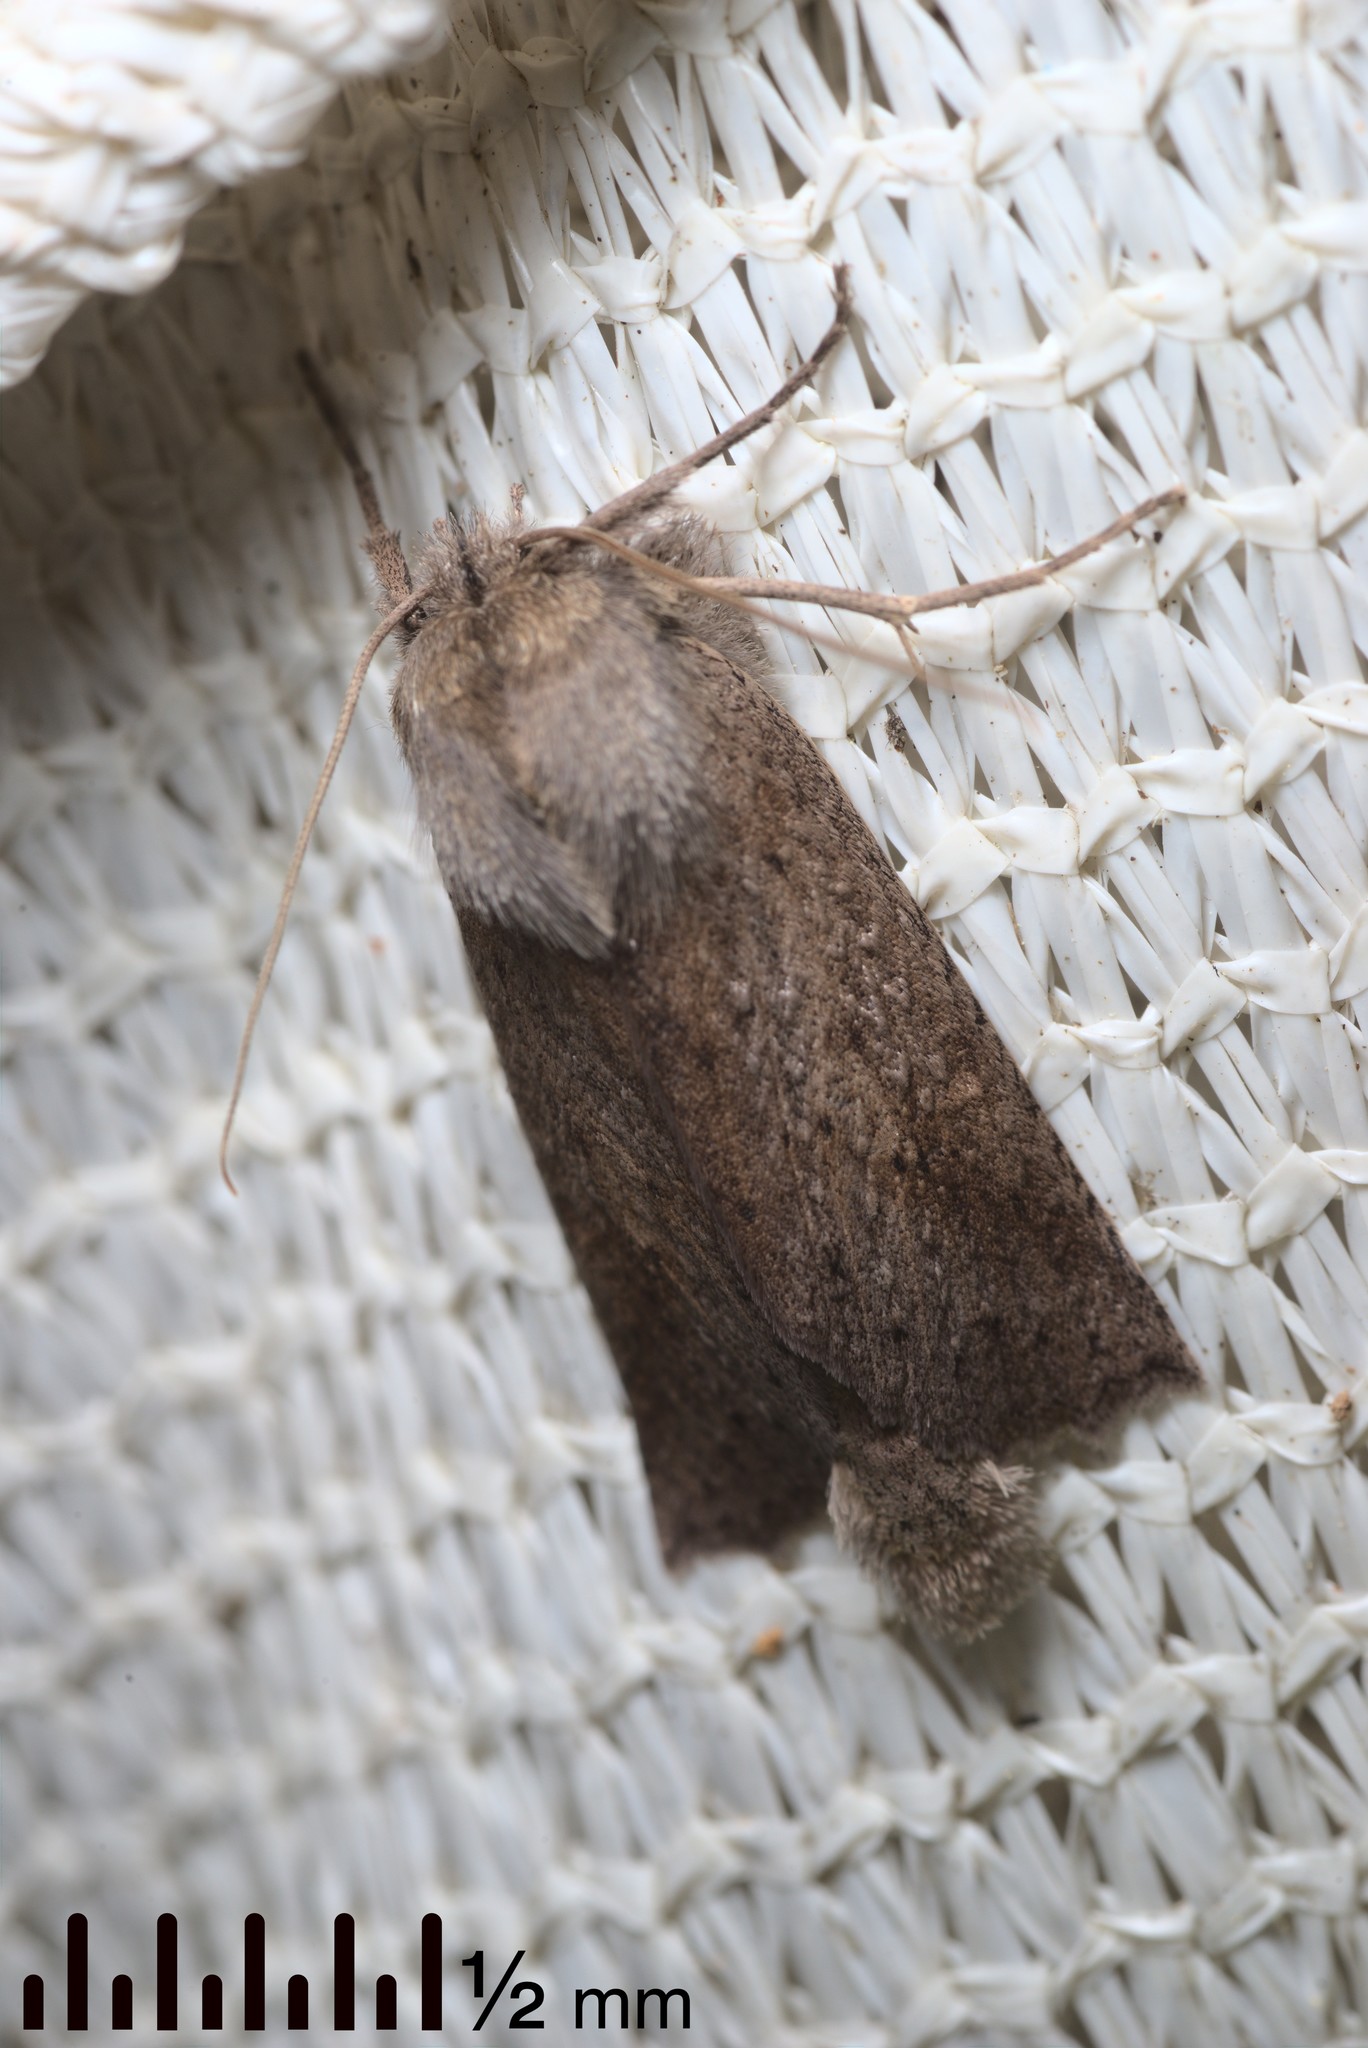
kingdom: Animalia
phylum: Arthropoda
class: Insecta
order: Lepidoptera
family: Geometridae
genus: Declana
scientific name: Declana leptomera
